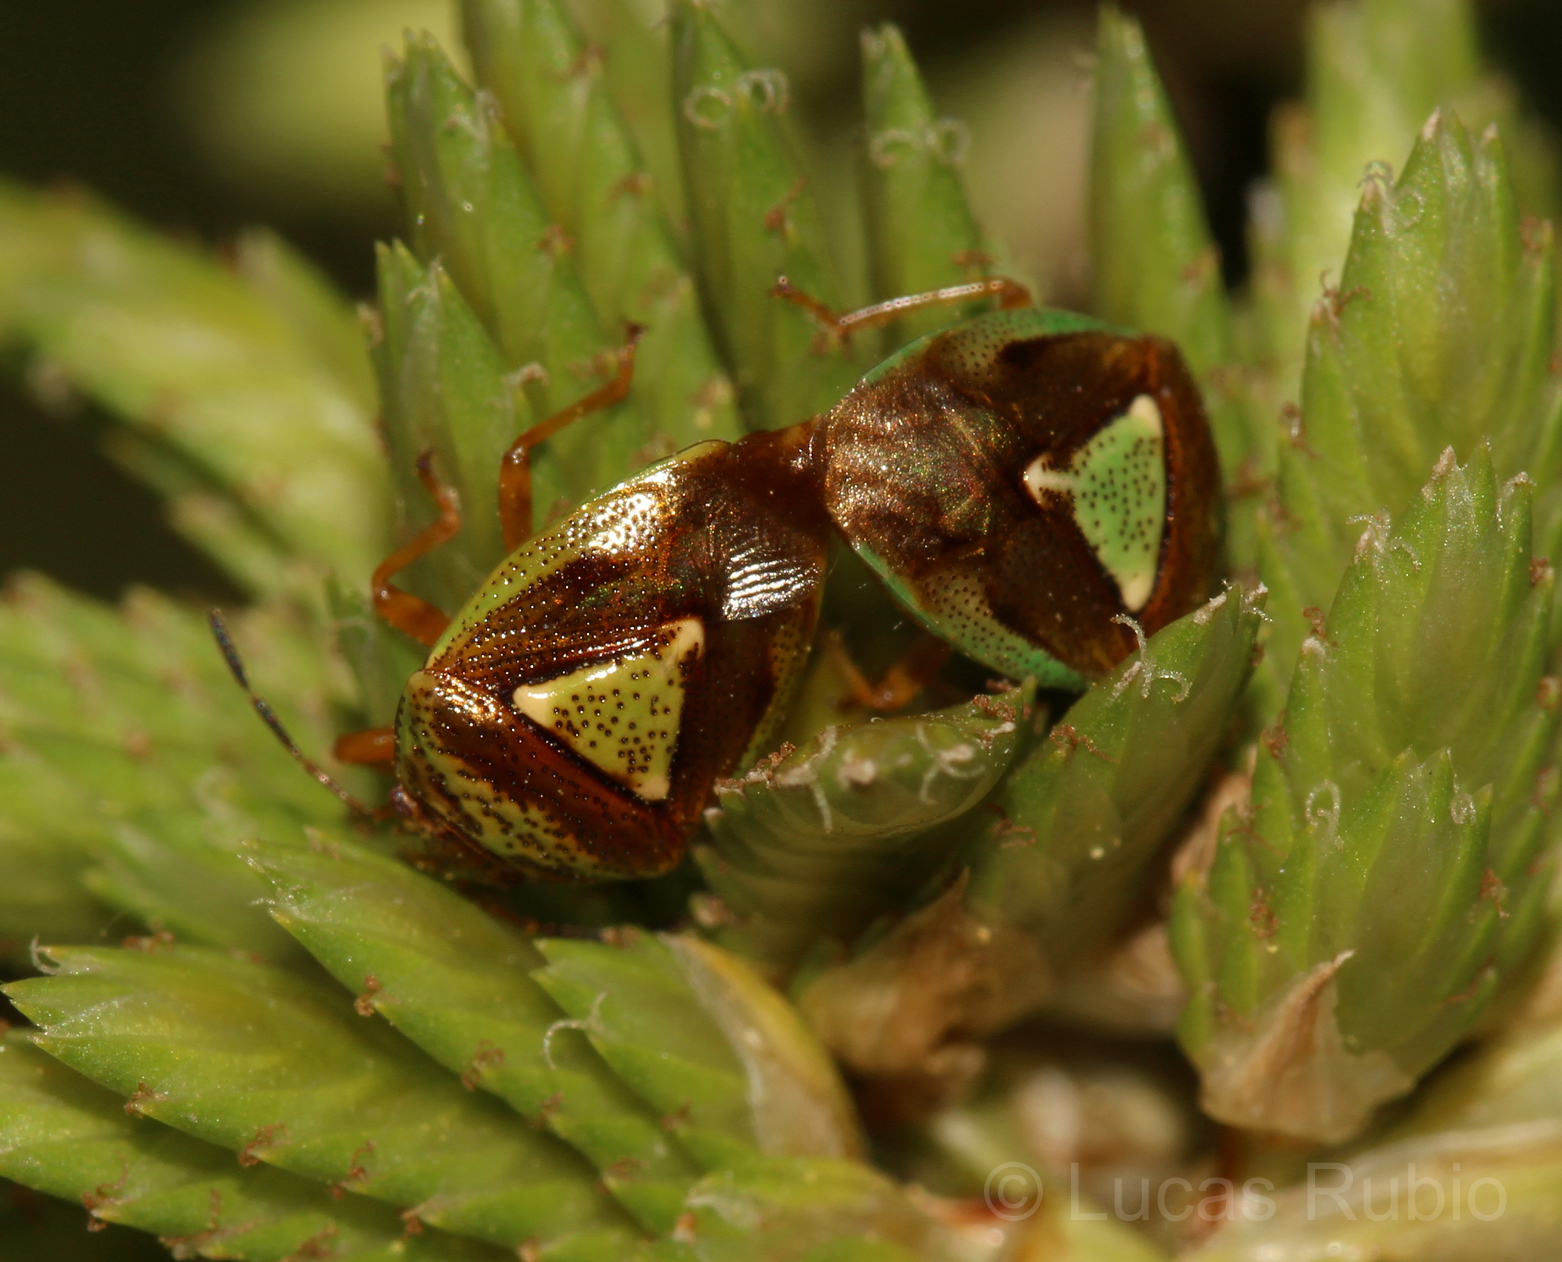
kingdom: Animalia
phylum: Arthropoda
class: Insecta
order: Hemiptera
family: Acanthosomatidae
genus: Hellica
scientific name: Hellica nitida
